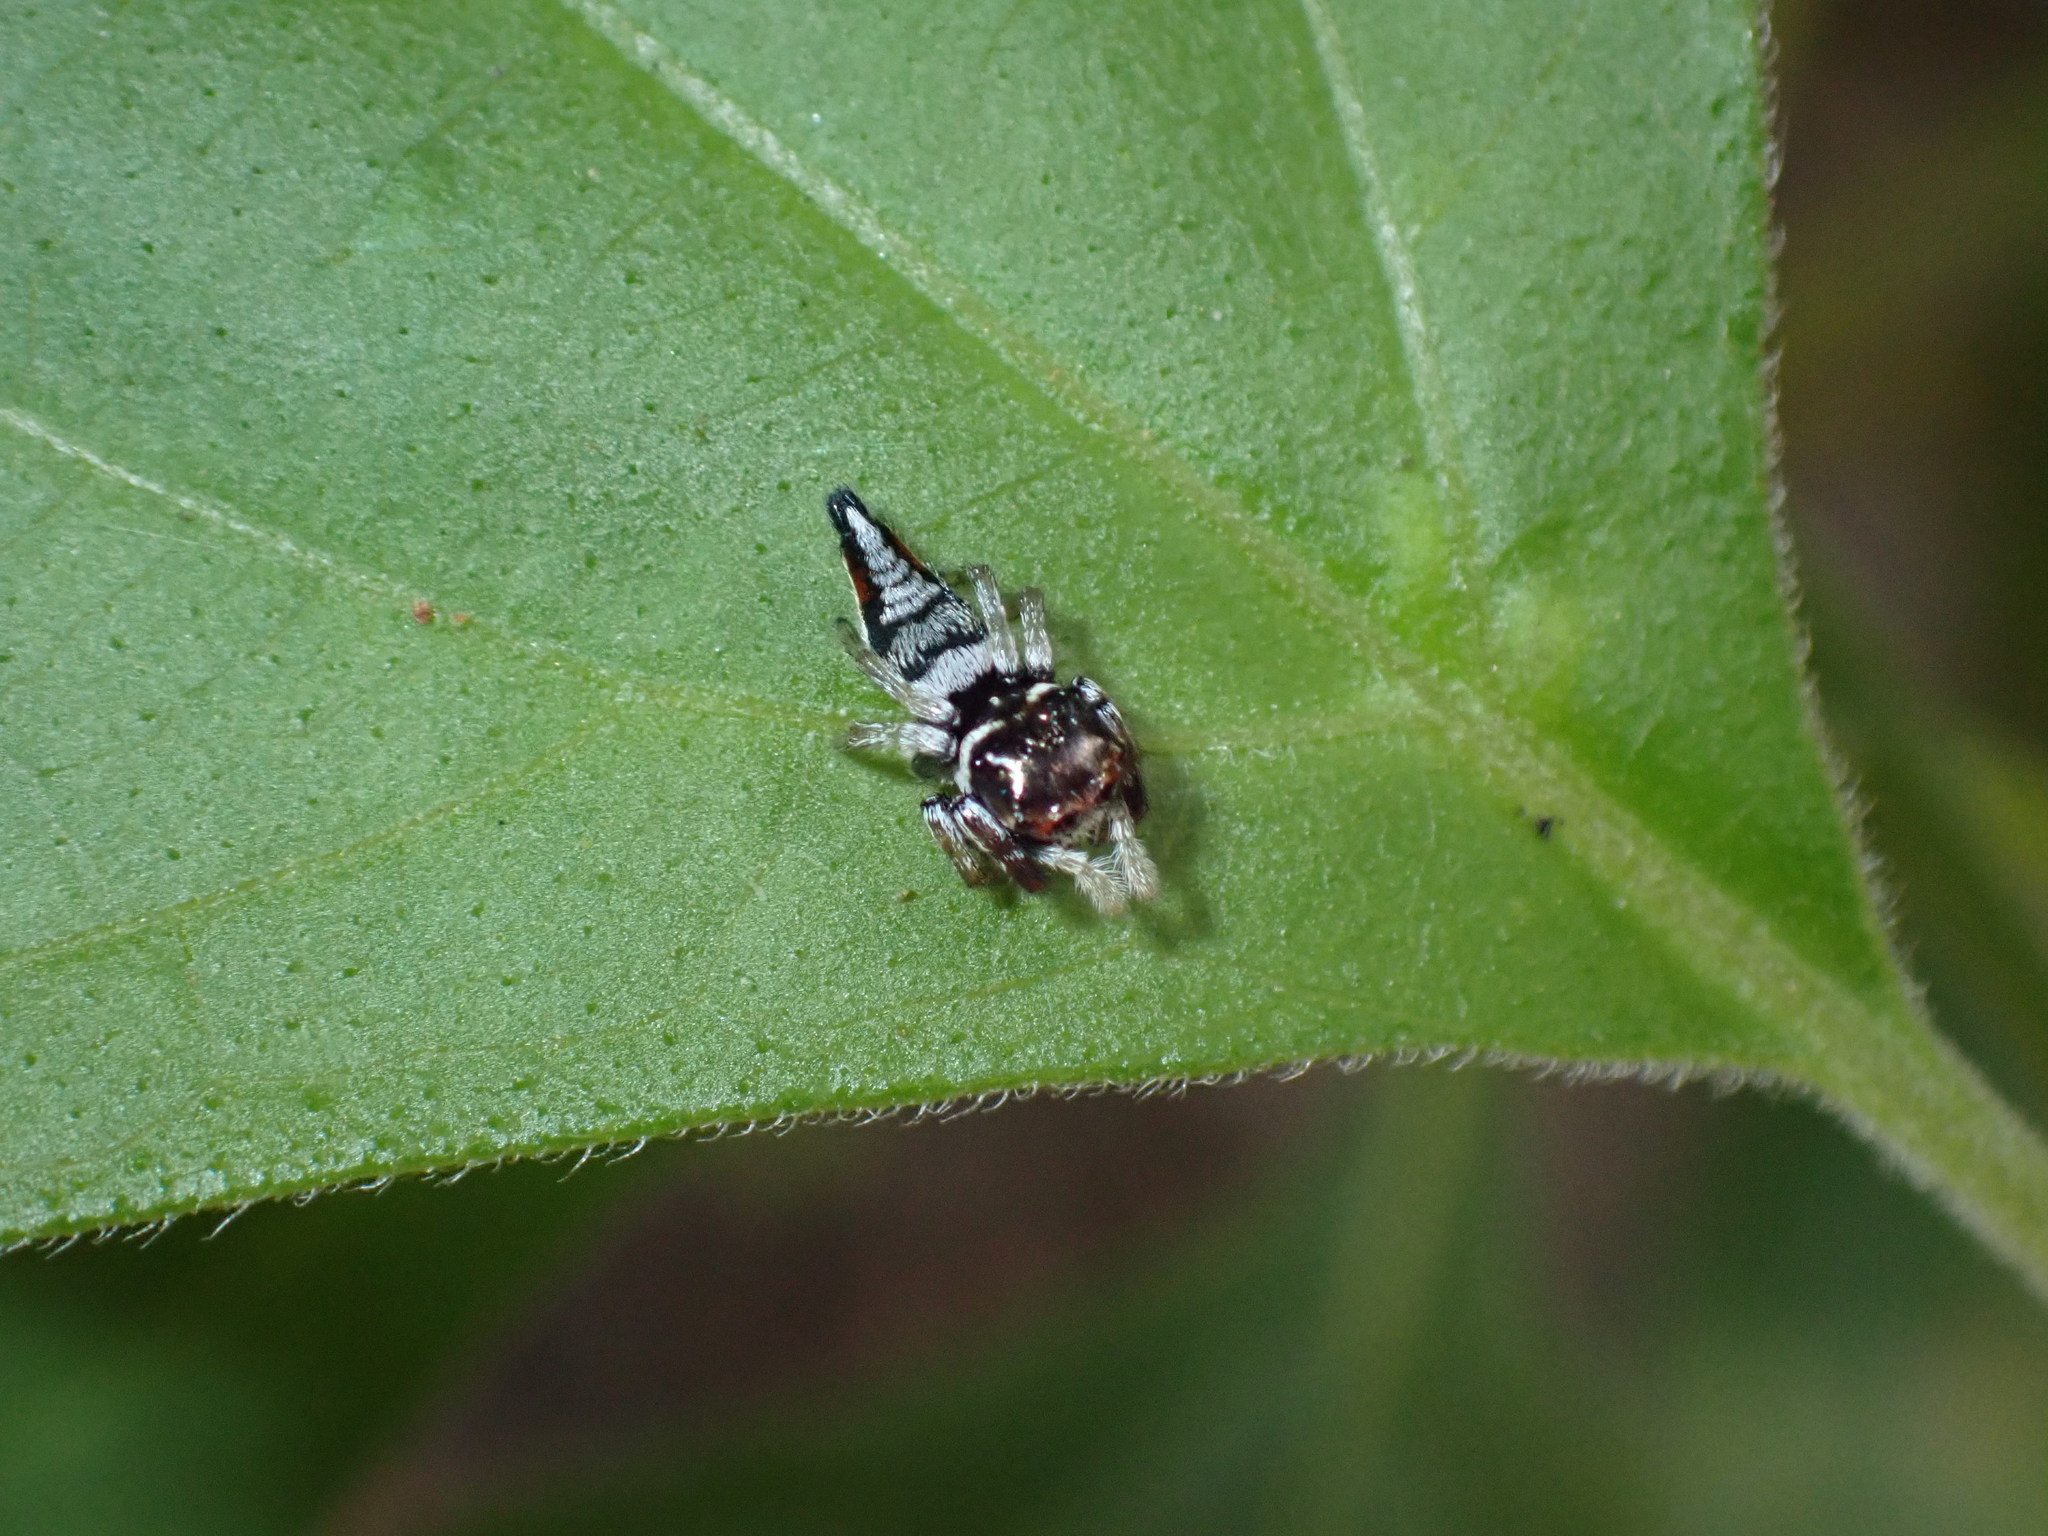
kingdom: Animalia
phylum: Arthropoda
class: Arachnida
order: Araneae
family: Salticidae
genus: Ptocasius
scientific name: Ptocasius weyersi
